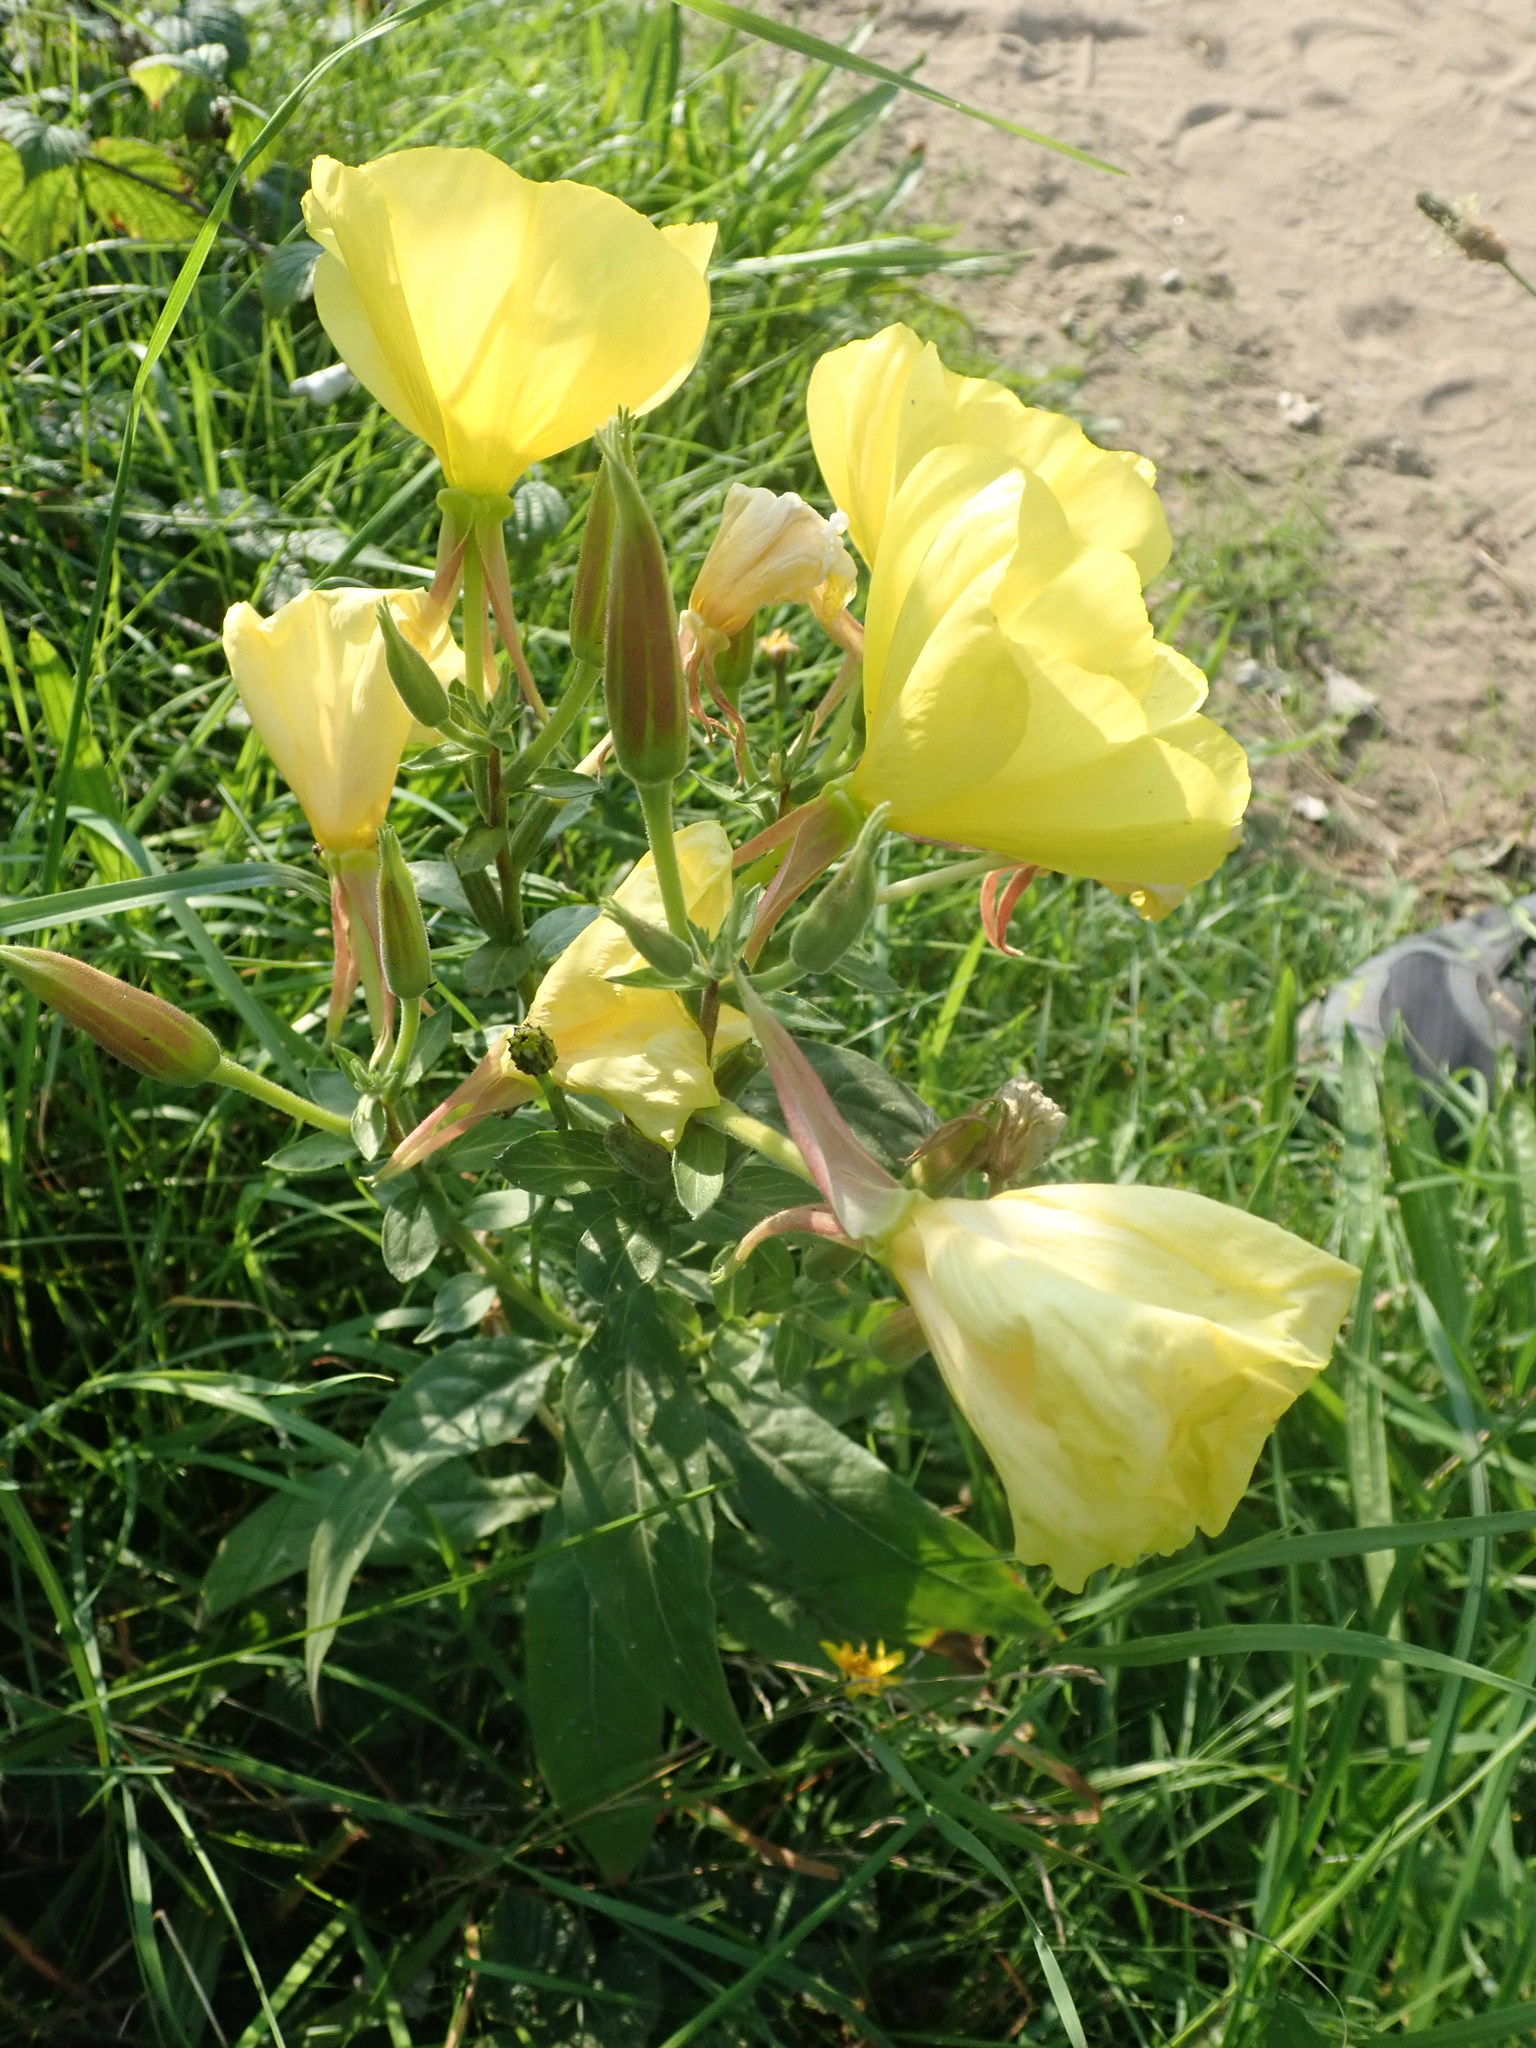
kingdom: Plantae
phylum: Tracheophyta
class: Magnoliopsida
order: Myrtales
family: Onagraceae
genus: Oenothera
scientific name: Oenothera glazioviana
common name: Large-flowered evening-primrose
